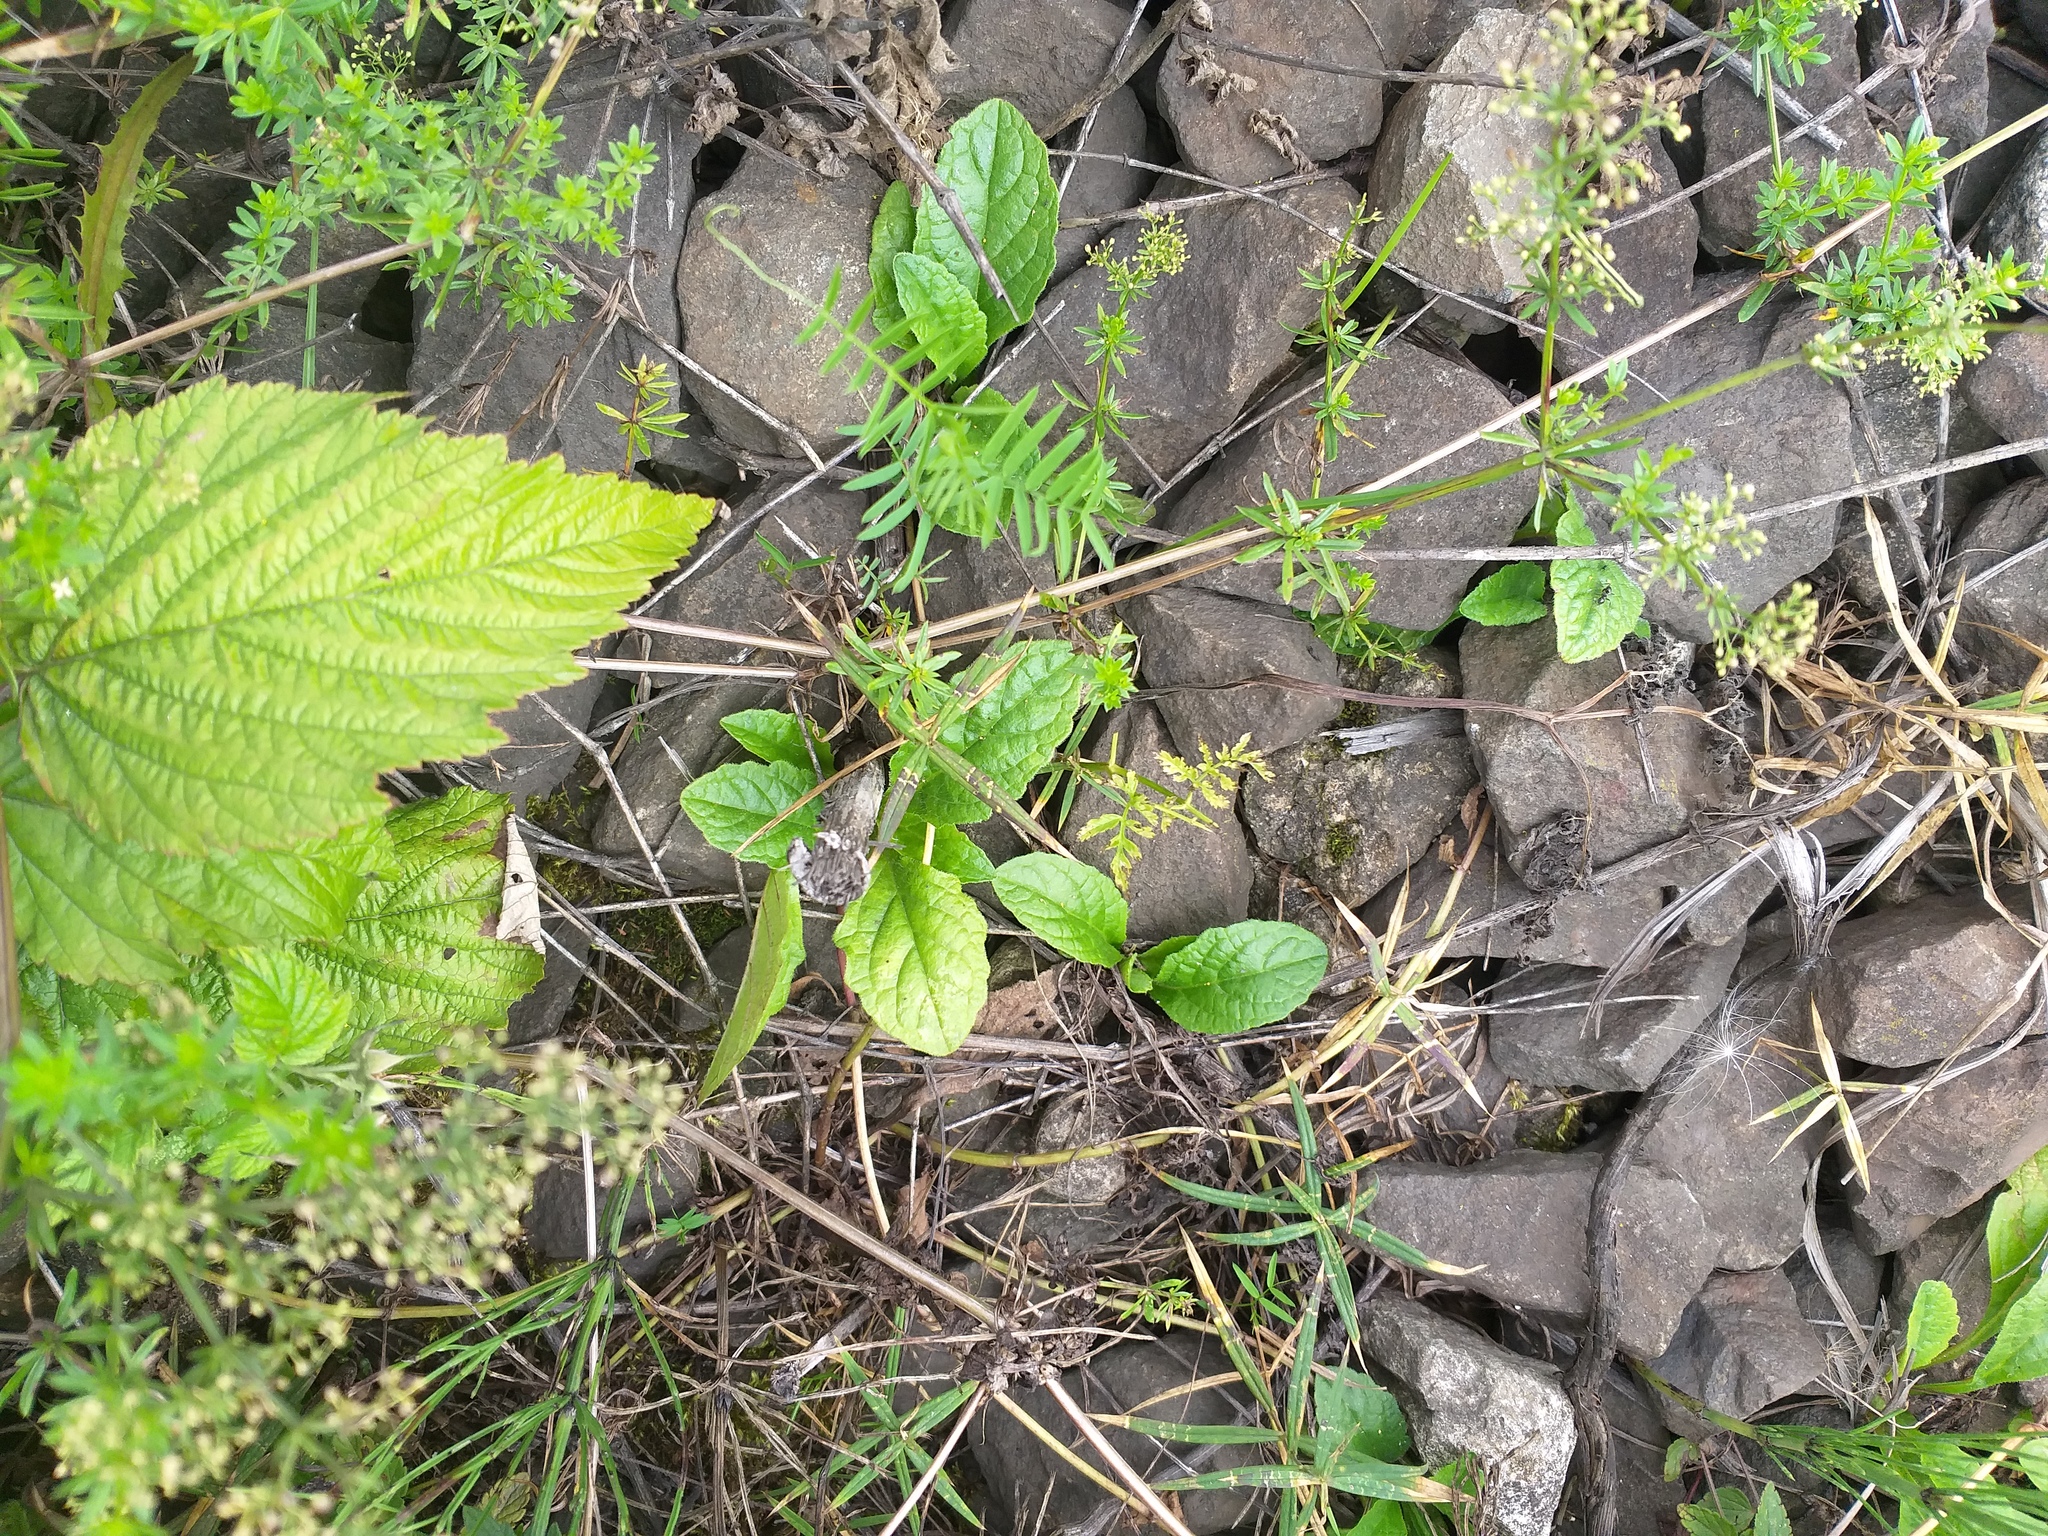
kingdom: Plantae
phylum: Tracheophyta
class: Magnoliopsida
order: Lamiales
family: Lamiaceae
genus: Ajuga
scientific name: Ajuga reptans
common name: Bugle
